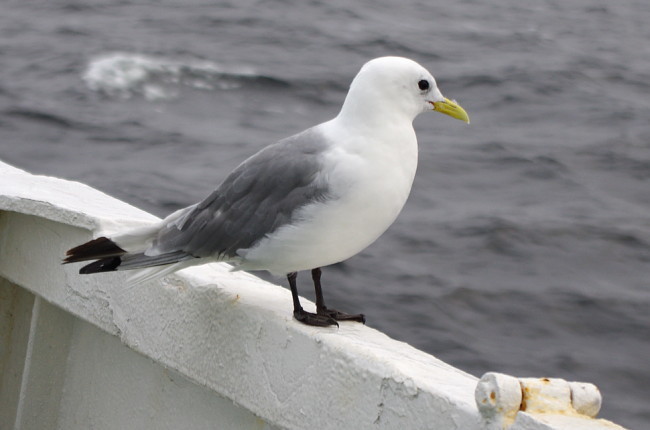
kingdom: Animalia
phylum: Chordata
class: Aves
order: Charadriiformes
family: Laridae
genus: Rissa
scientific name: Rissa tridactyla
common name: Black-legged kittiwake
